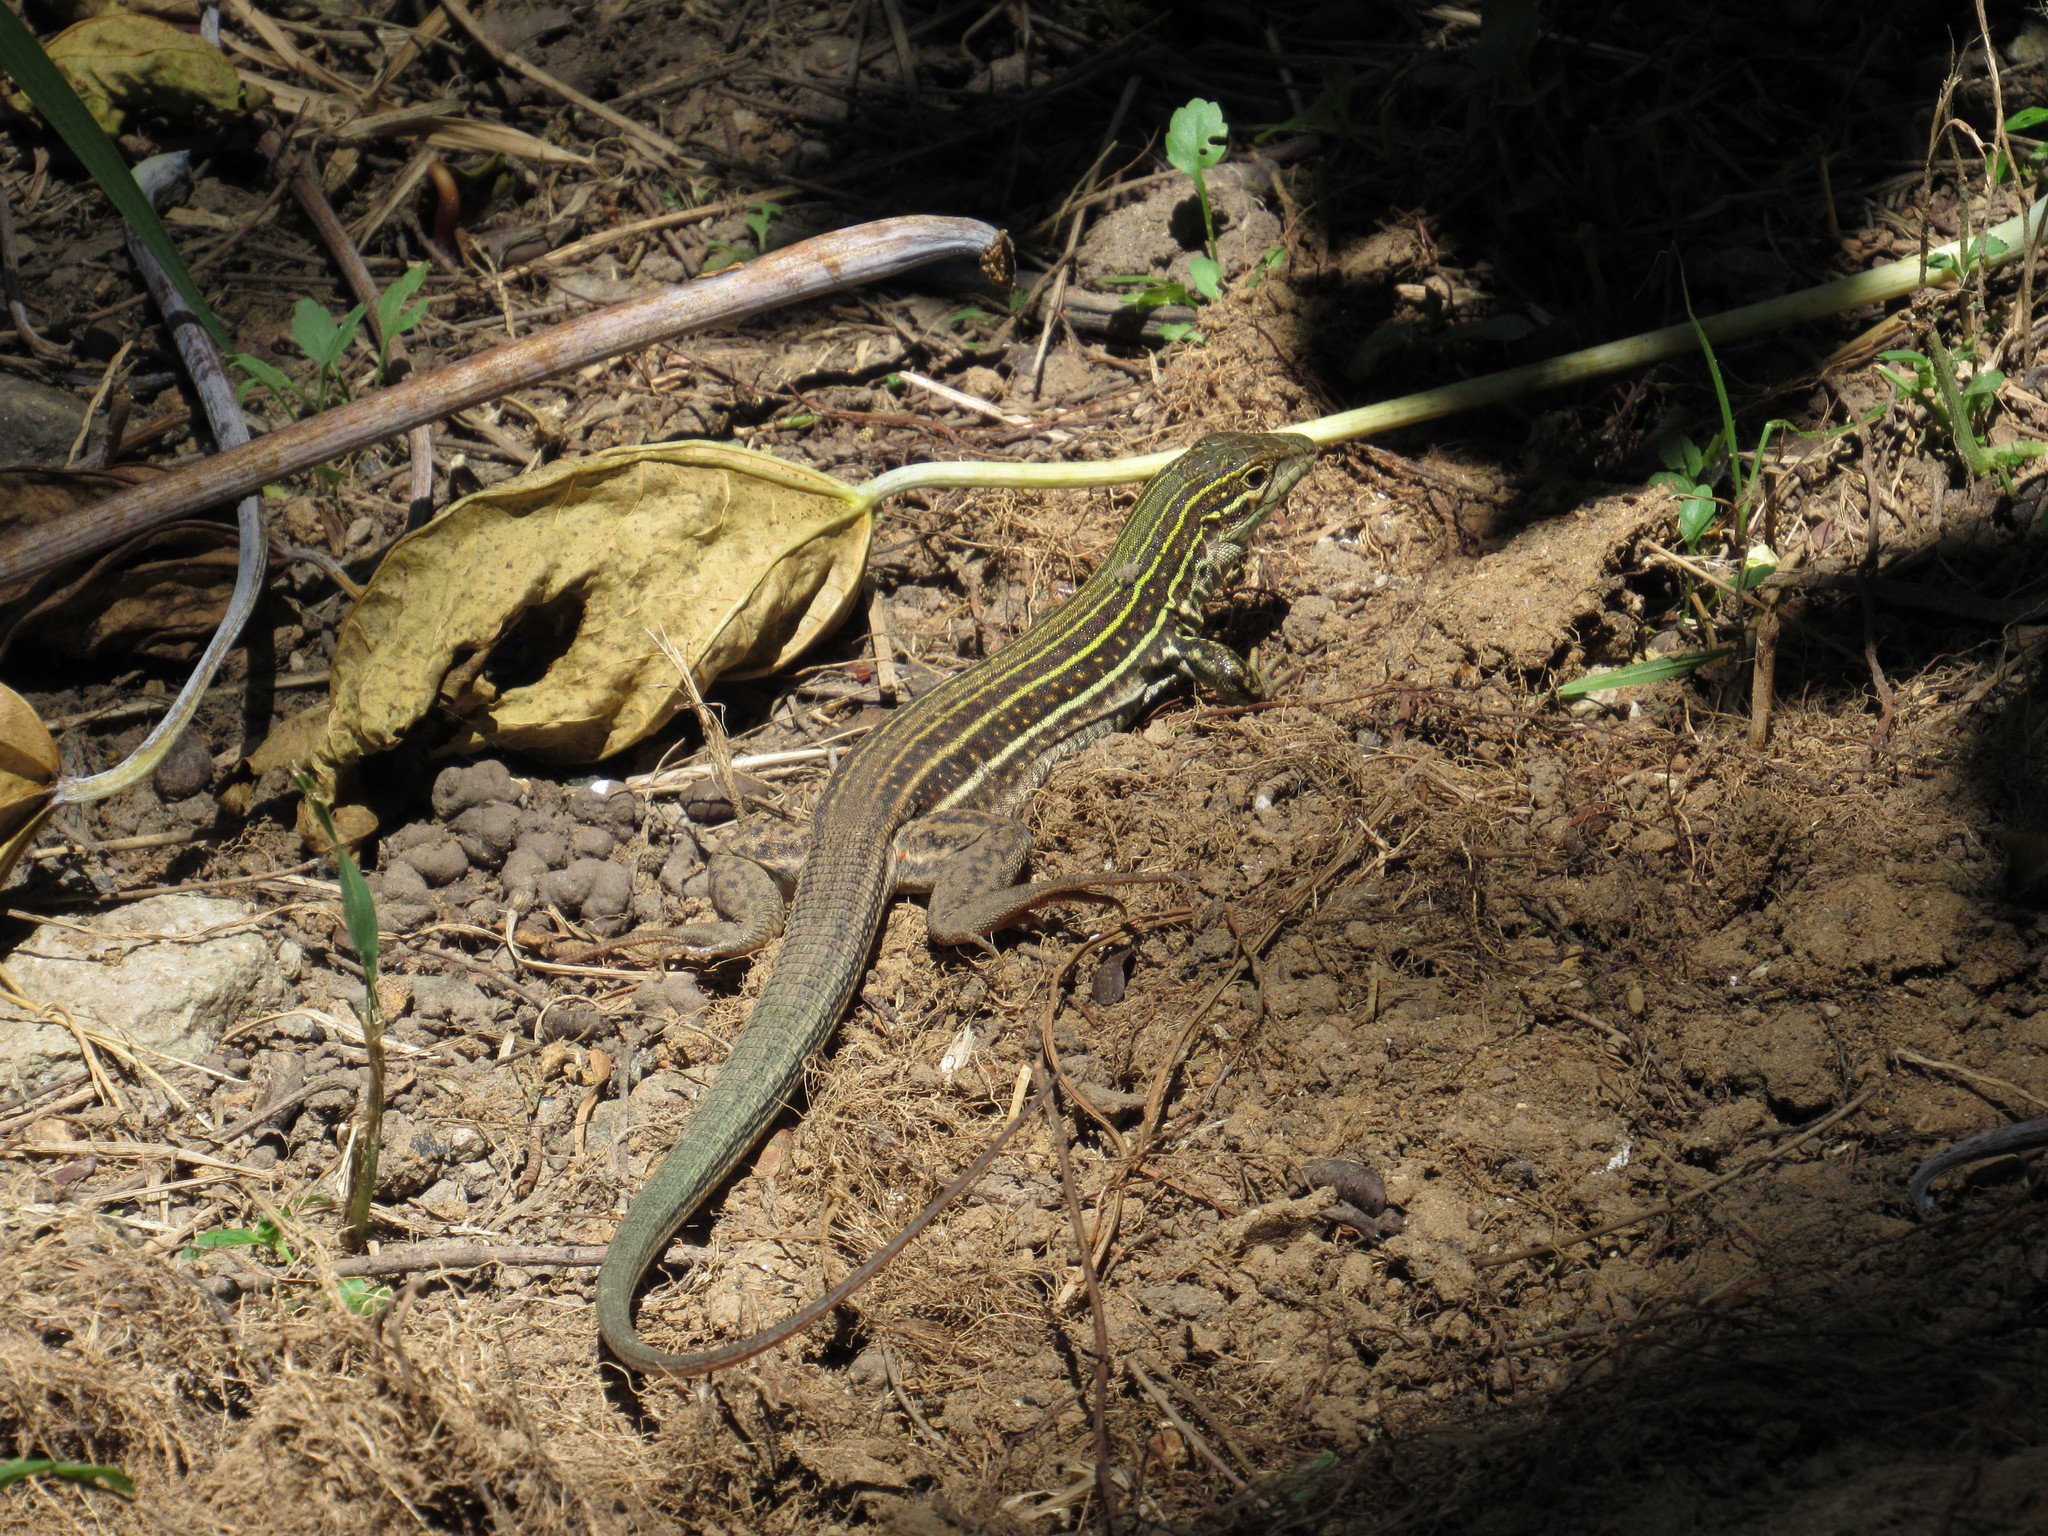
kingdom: Animalia
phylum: Chordata
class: Squamata
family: Teiidae
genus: Aspidoscelis
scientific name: Aspidoscelis gularis
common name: Eastern spotted whiptail
